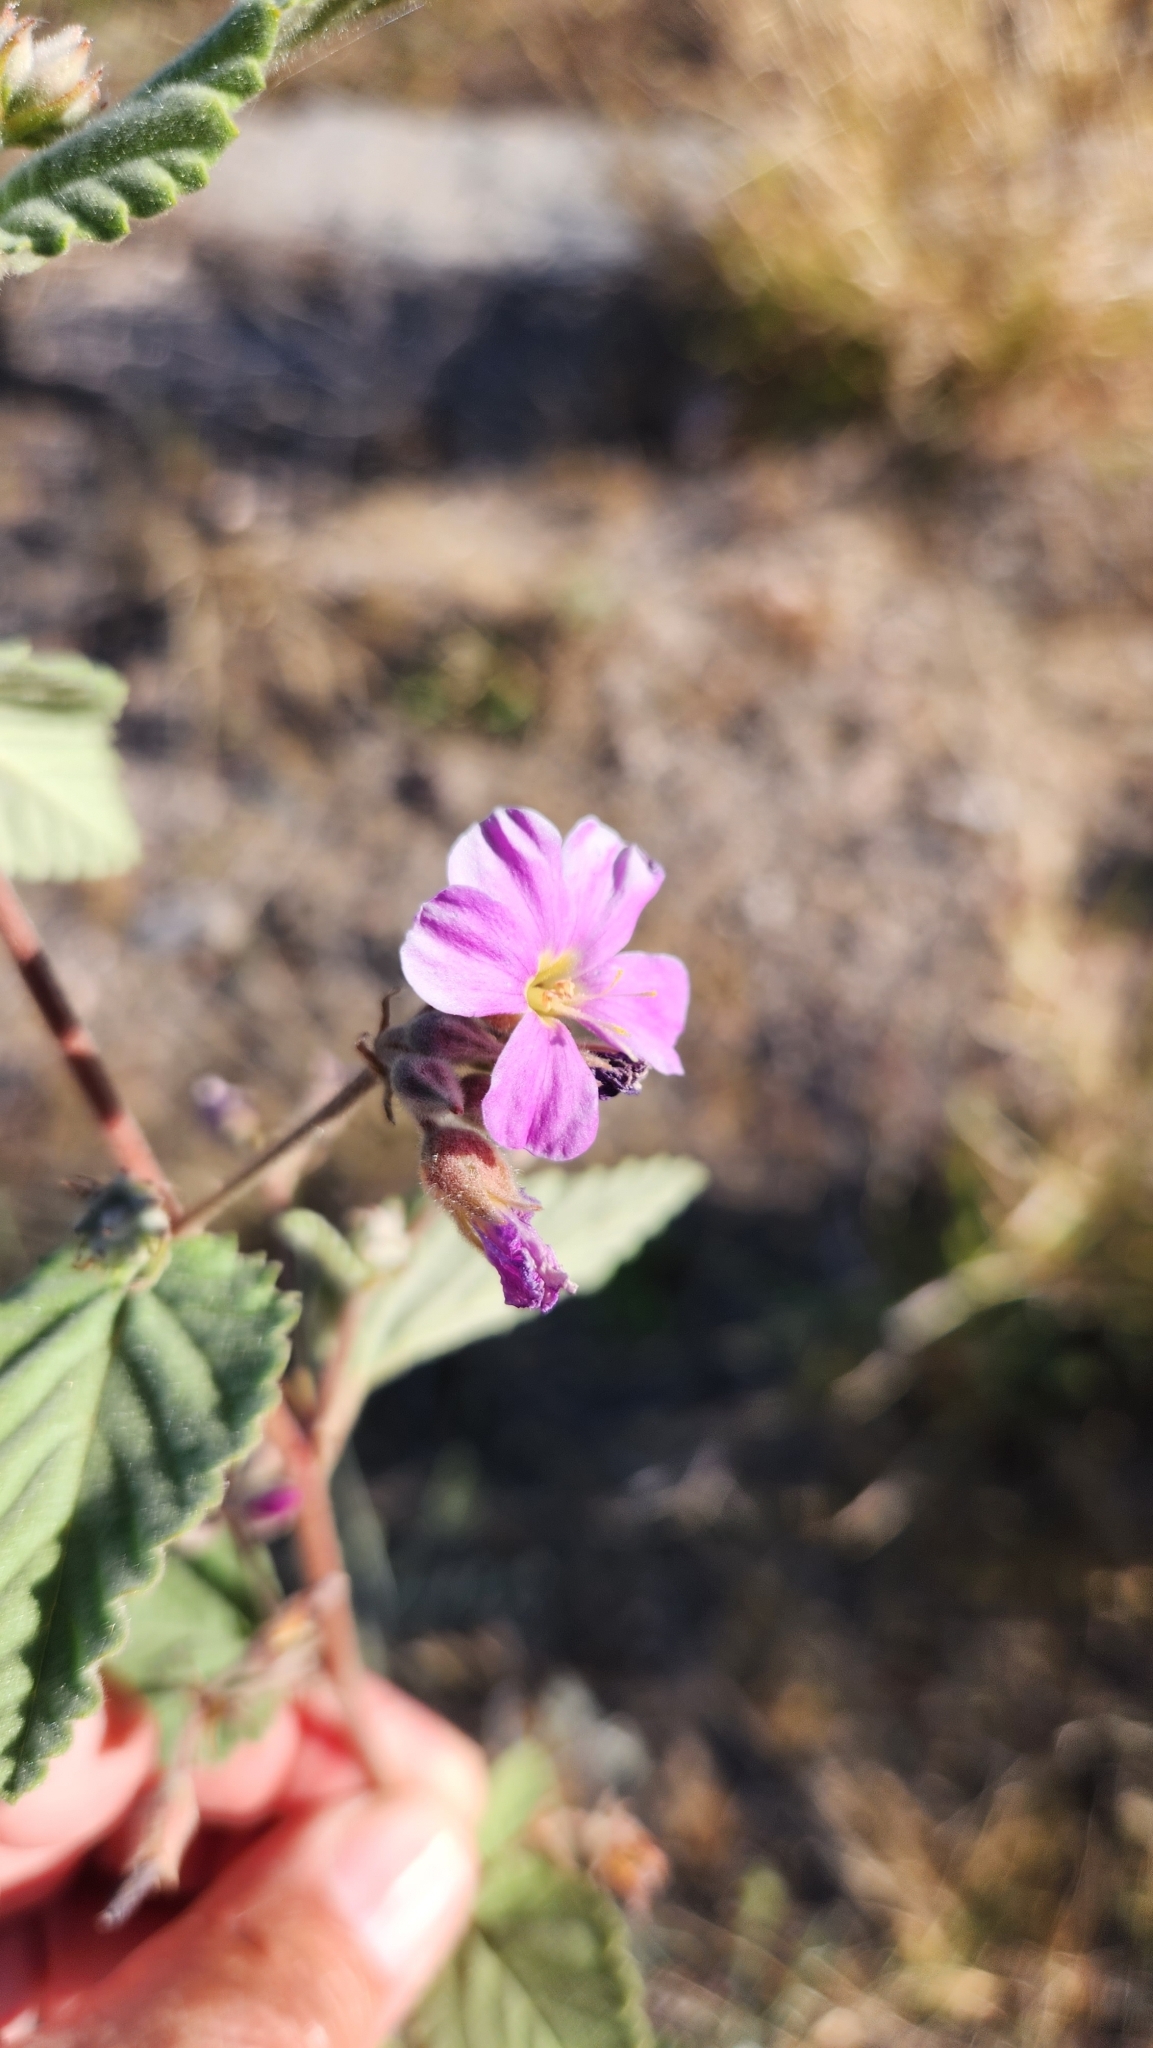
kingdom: Plantae
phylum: Tracheophyta
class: Magnoliopsida
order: Malvales
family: Malvaceae
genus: Melochia
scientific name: Melochia tomentosa
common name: Black torch
